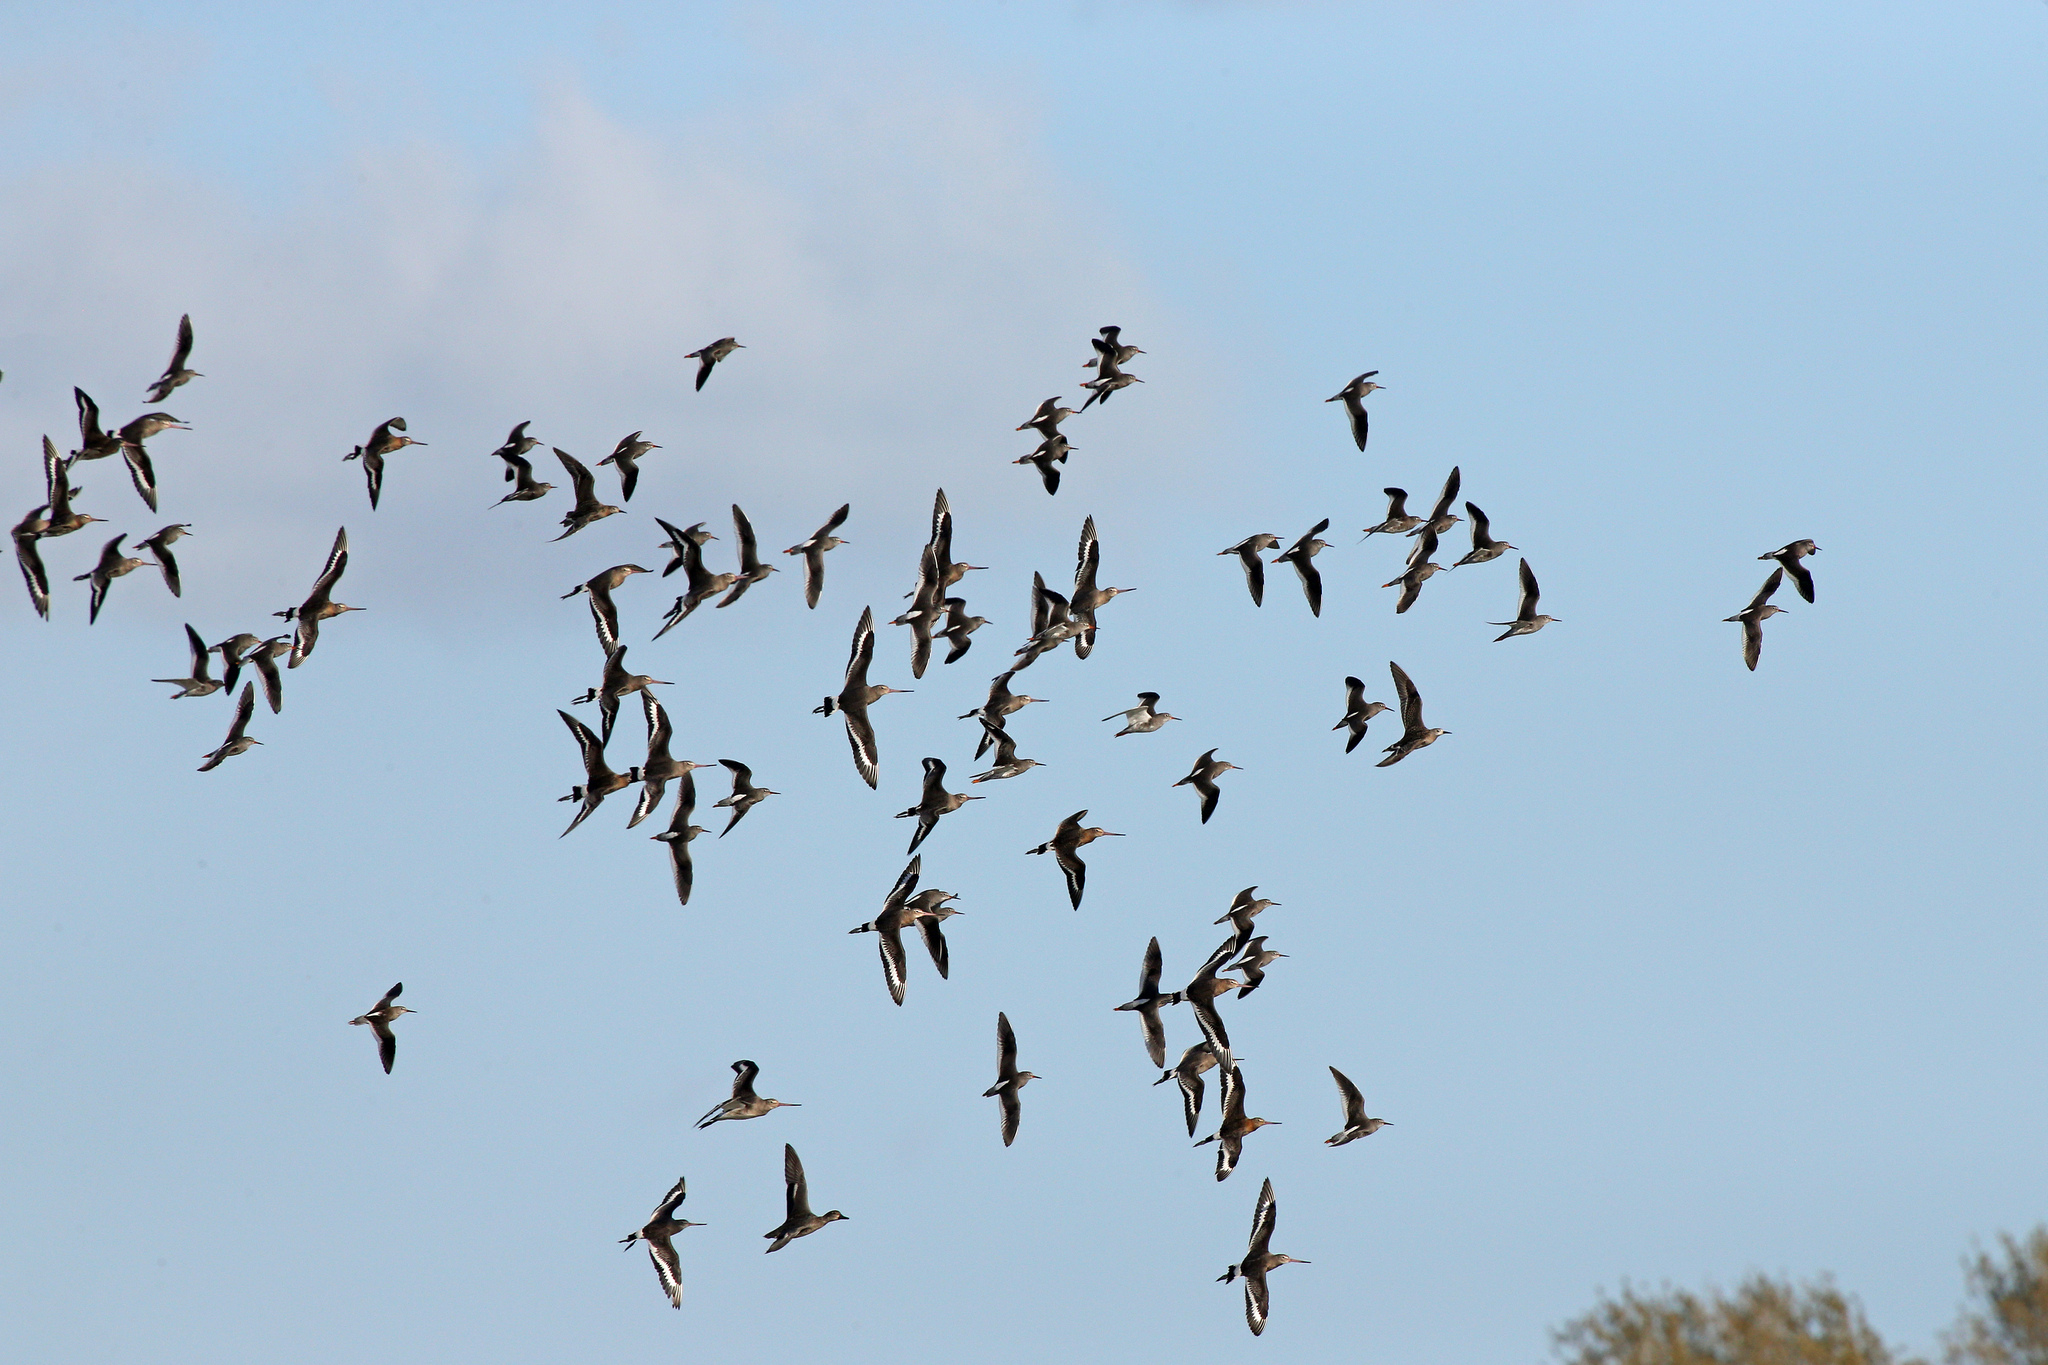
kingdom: Animalia
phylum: Chordata
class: Aves
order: Charadriiformes
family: Scolopacidae
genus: Limosa
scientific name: Limosa limosa
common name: Black-tailed godwit
